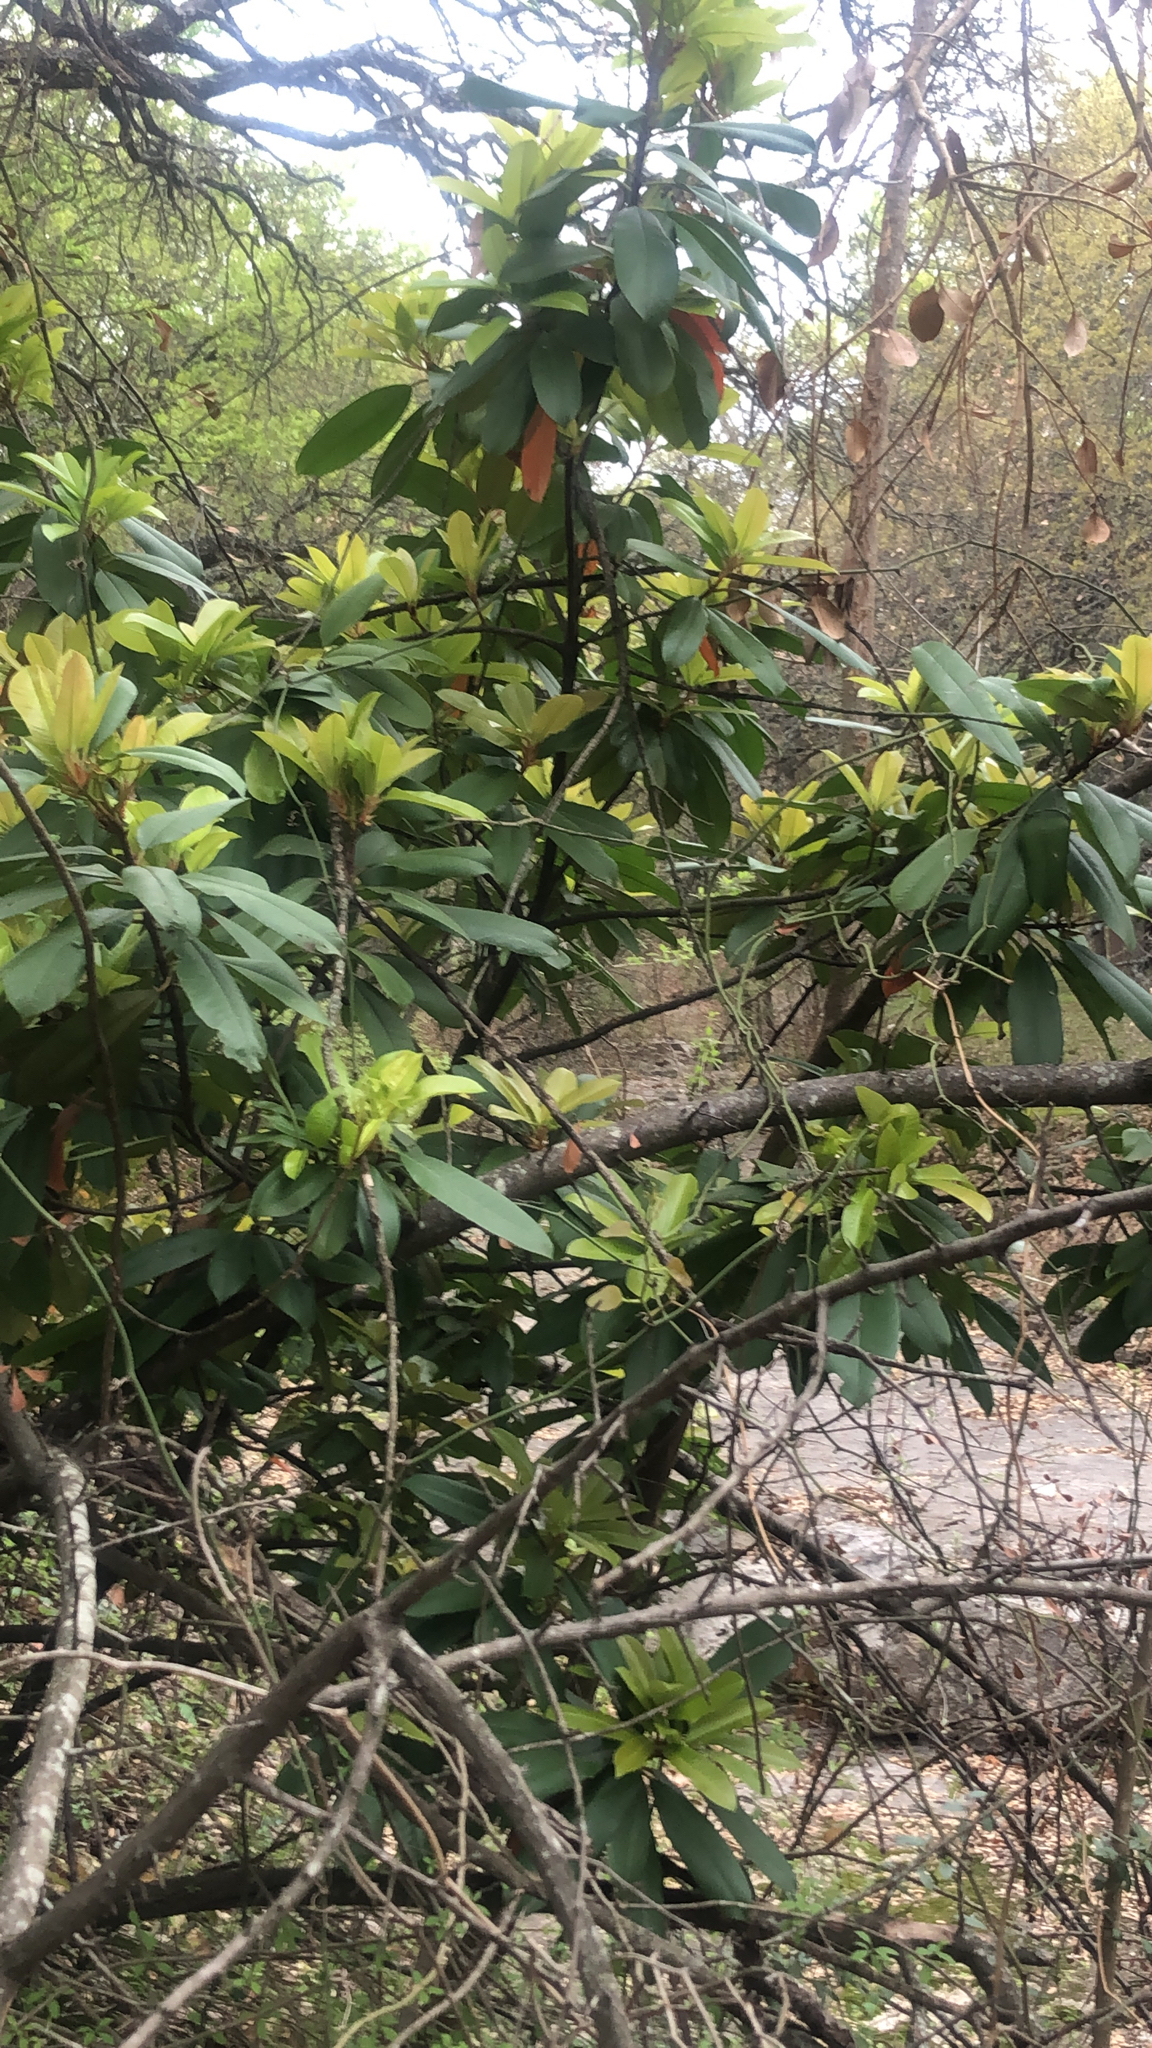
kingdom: Plantae
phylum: Tracheophyta
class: Magnoliopsida
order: Rosales
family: Rosaceae
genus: Photinia
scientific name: Photinia serratifolia
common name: Taiwanese photinia
